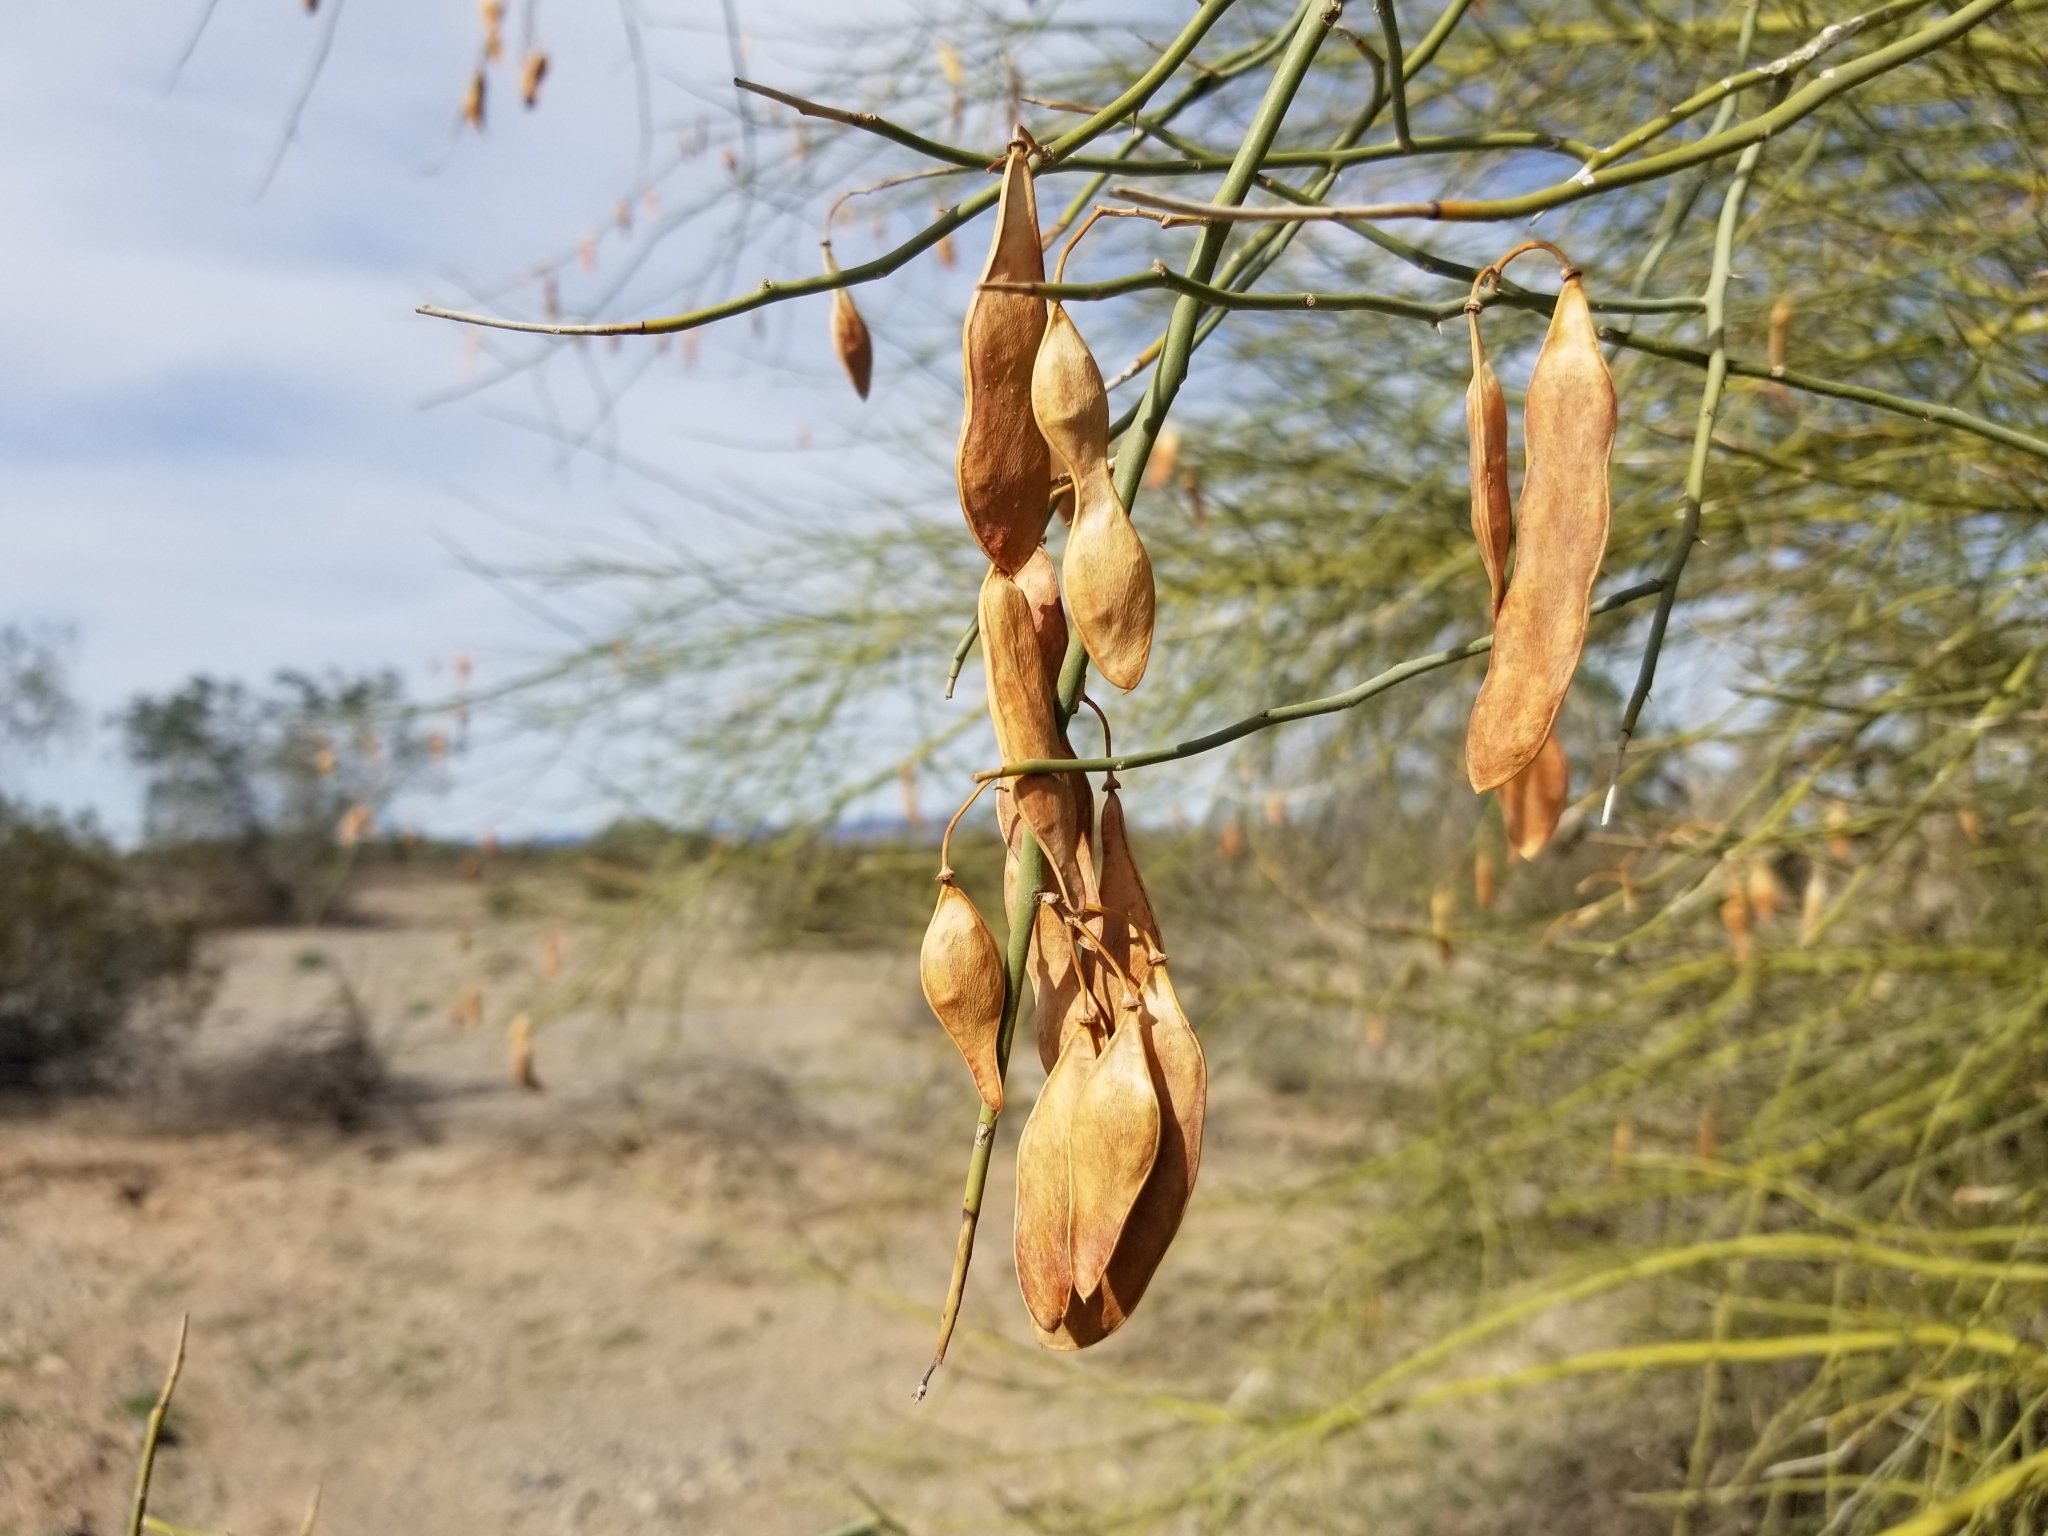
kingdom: Plantae
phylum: Tracheophyta
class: Magnoliopsida
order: Fabales
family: Fabaceae
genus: Parkinsonia
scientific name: Parkinsonia florida
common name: Blue paloverde
